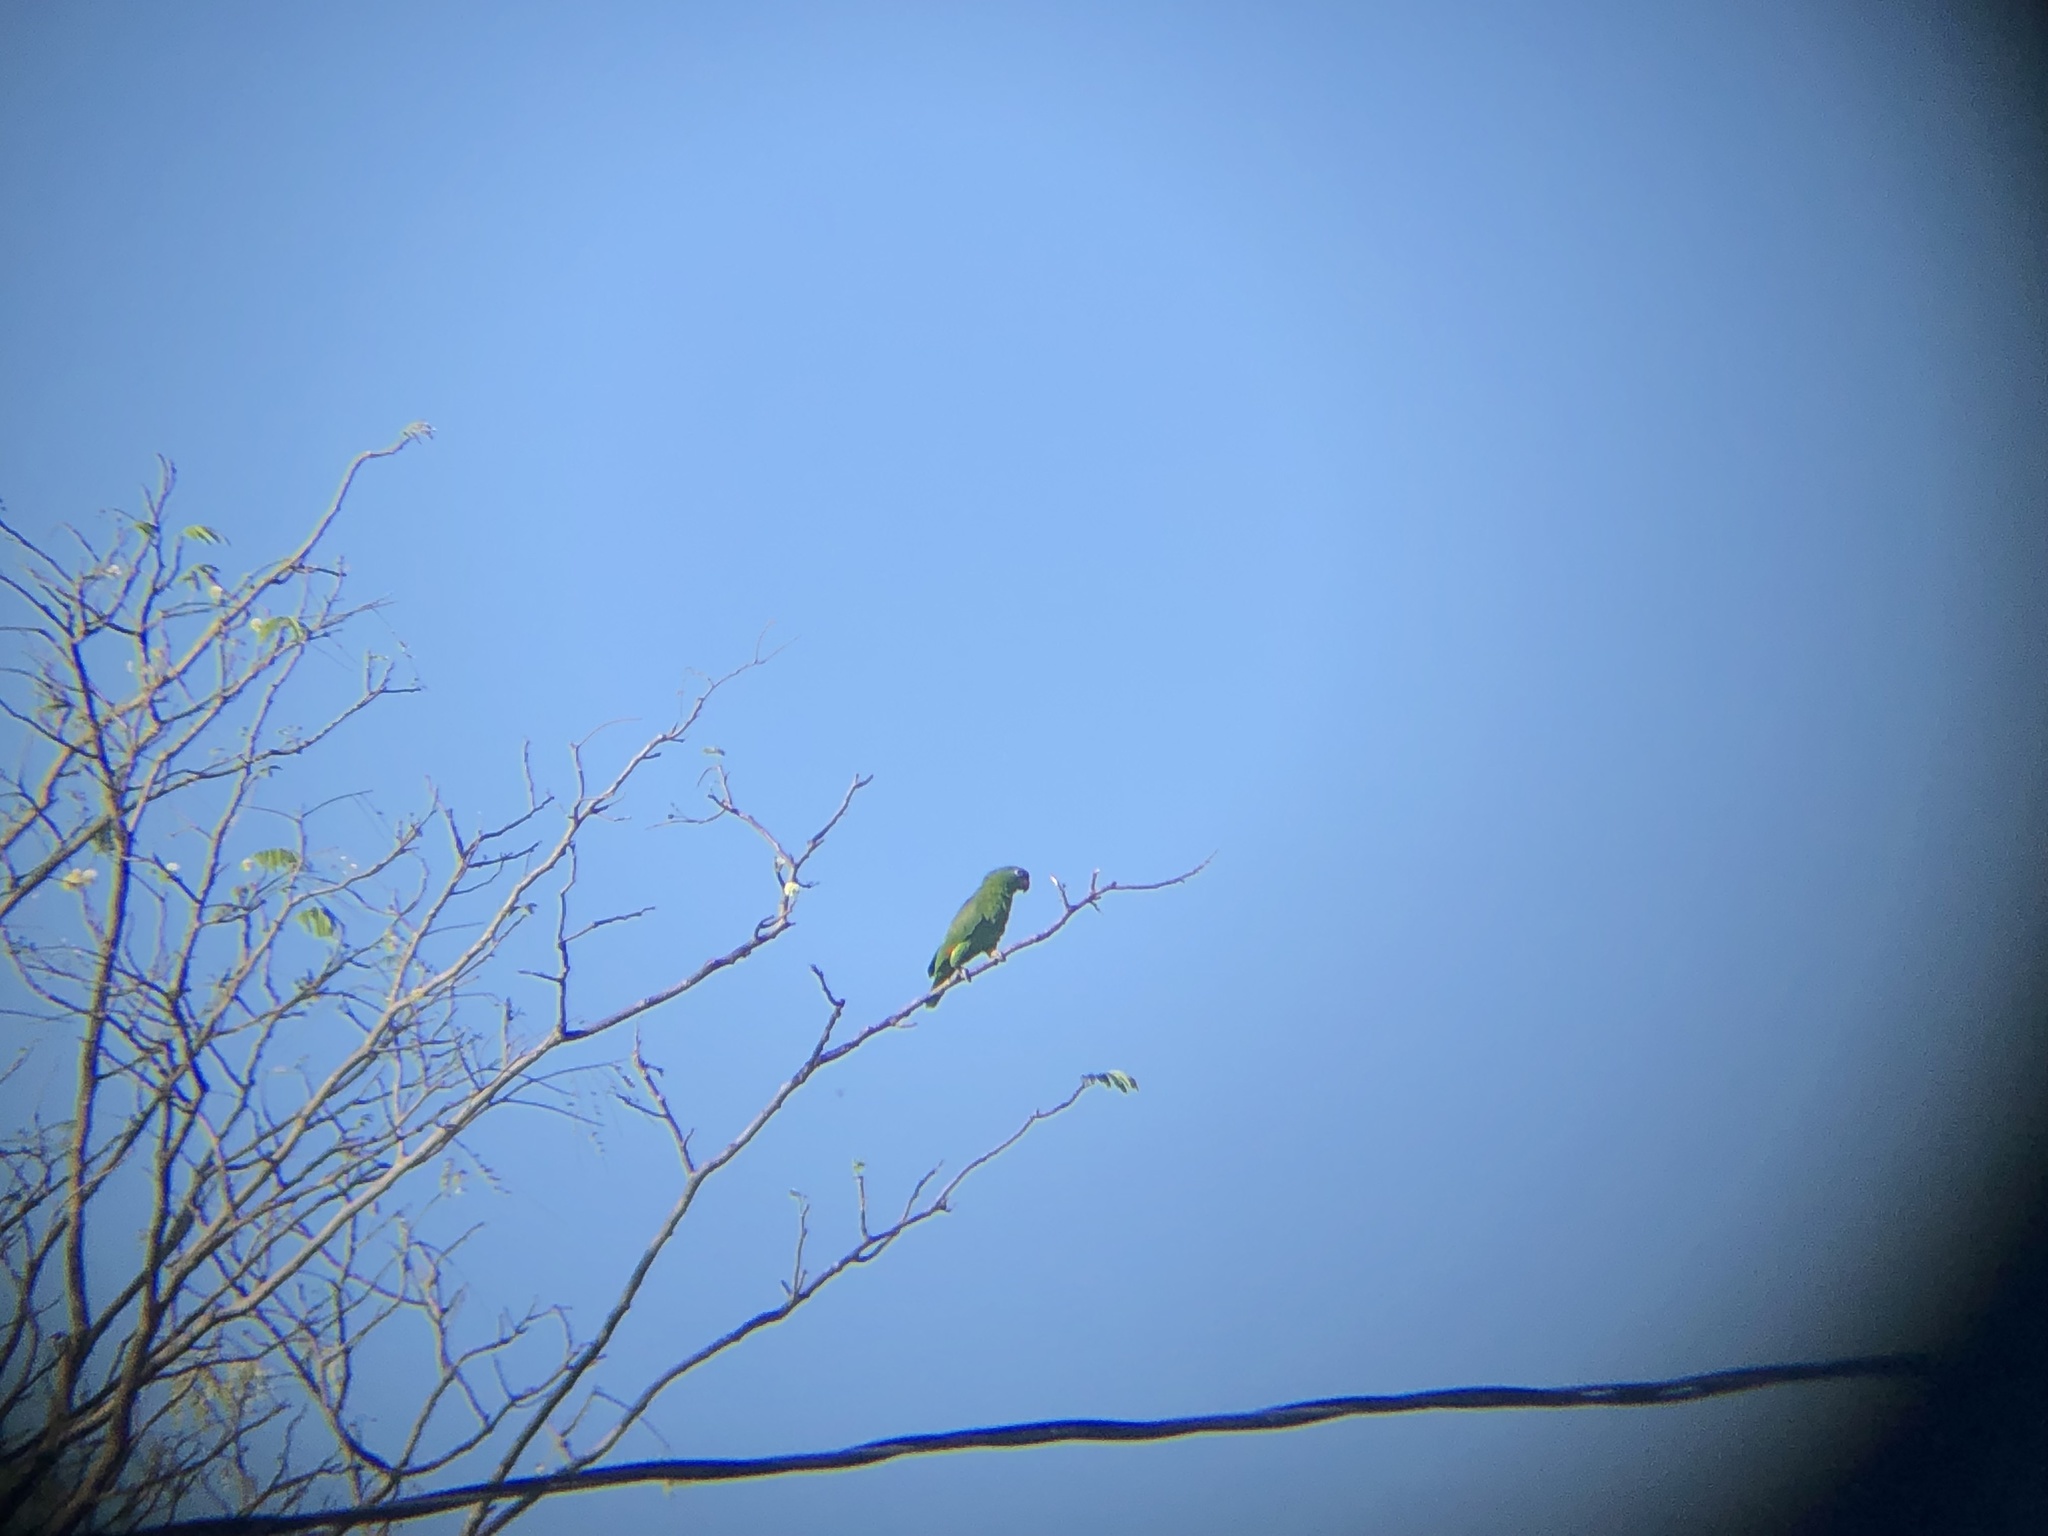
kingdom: Animalia
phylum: Chordata
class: Aves
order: Psittaciformes
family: Psittacidae
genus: Amazona
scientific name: Amazona ochrocephala
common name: Yellow-crowned amazon
